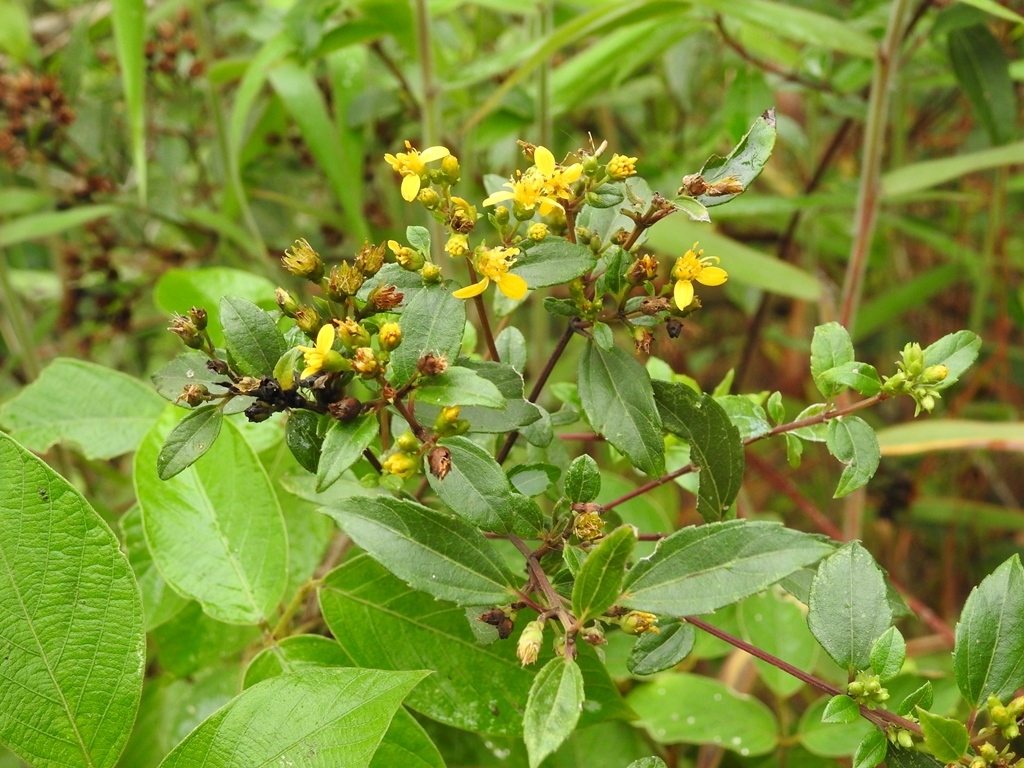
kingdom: Plantae
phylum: Tracheophyta
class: Magnoliopsida
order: Asterales
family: Asteraceae
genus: Calea
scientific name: Calea urticifolia
